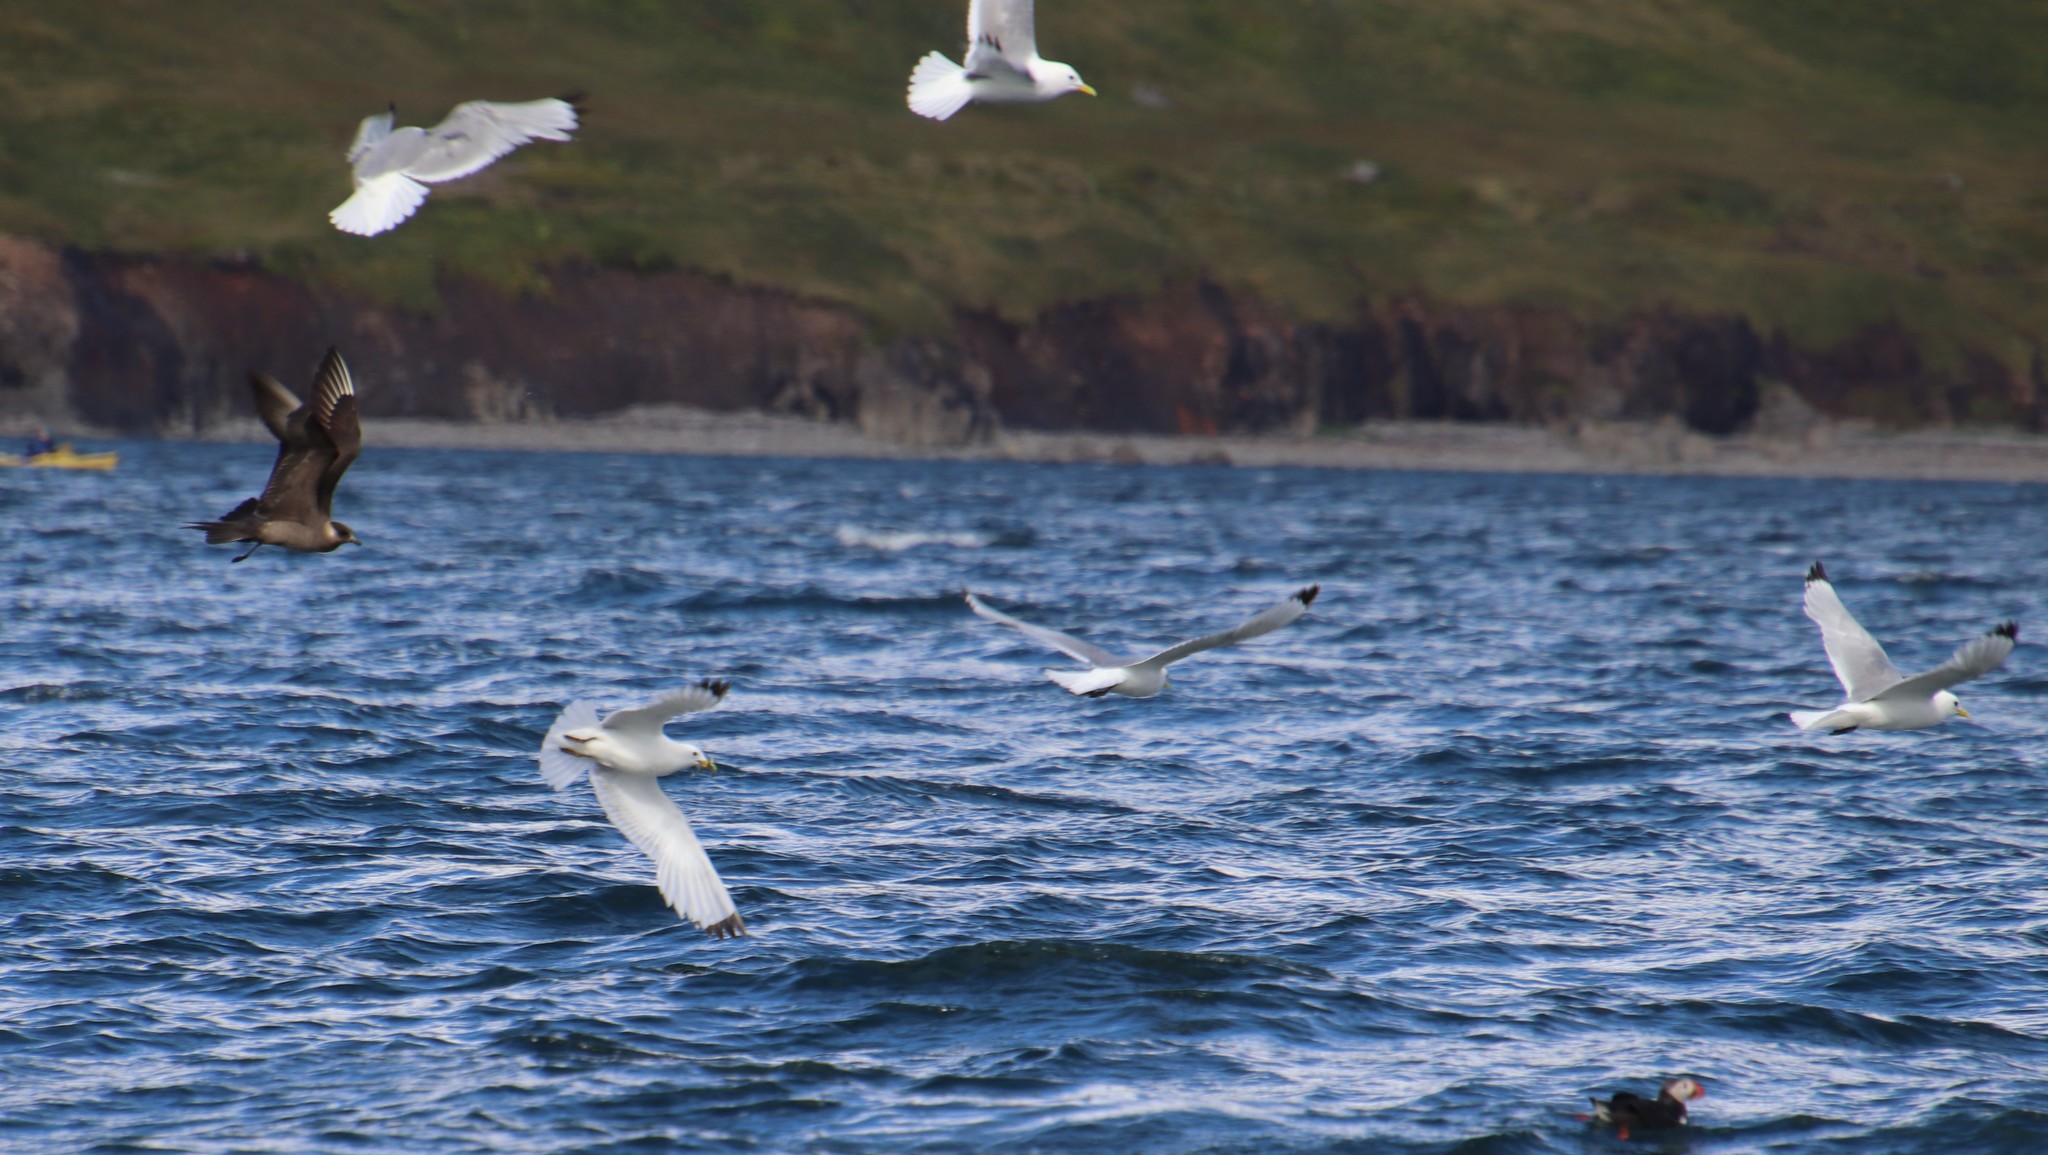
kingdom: Animalia
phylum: Chordata
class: Aves
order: Charadriiformes
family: Laridae
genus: Rissa
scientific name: Rissa tridactyla
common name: Black-legged kittiwake
